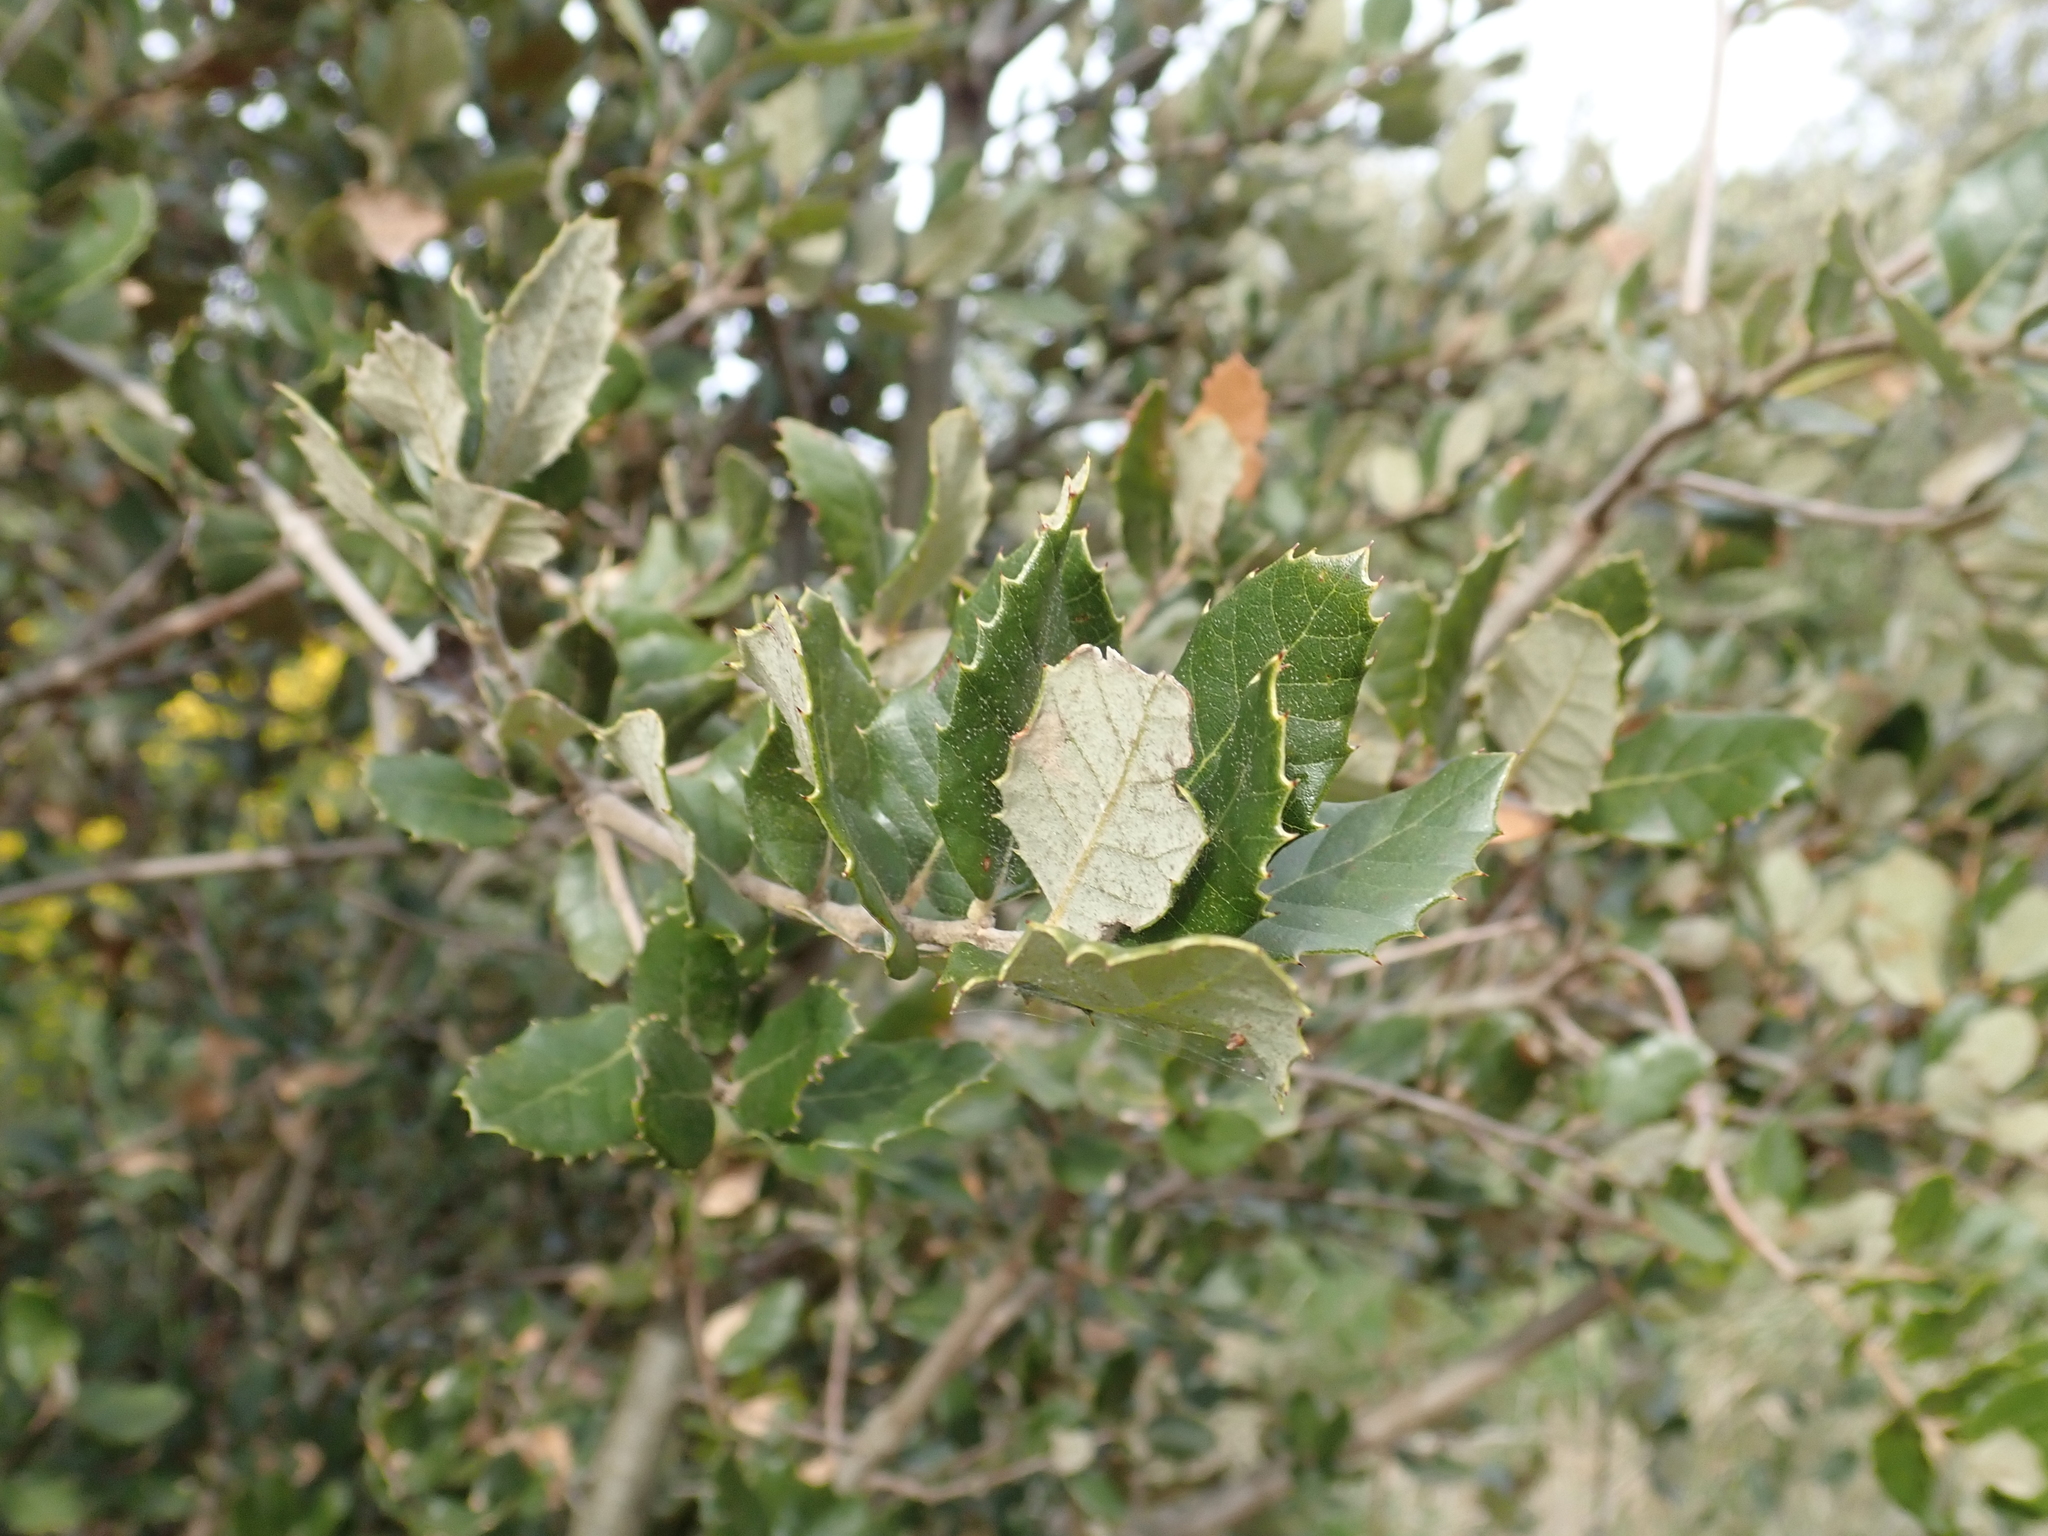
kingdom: Plantae
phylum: Tracheophyta
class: Magnoliopsida
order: Fagales
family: Fagaceae
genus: Quercus
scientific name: Quercus ilex
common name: Evergreen oak
